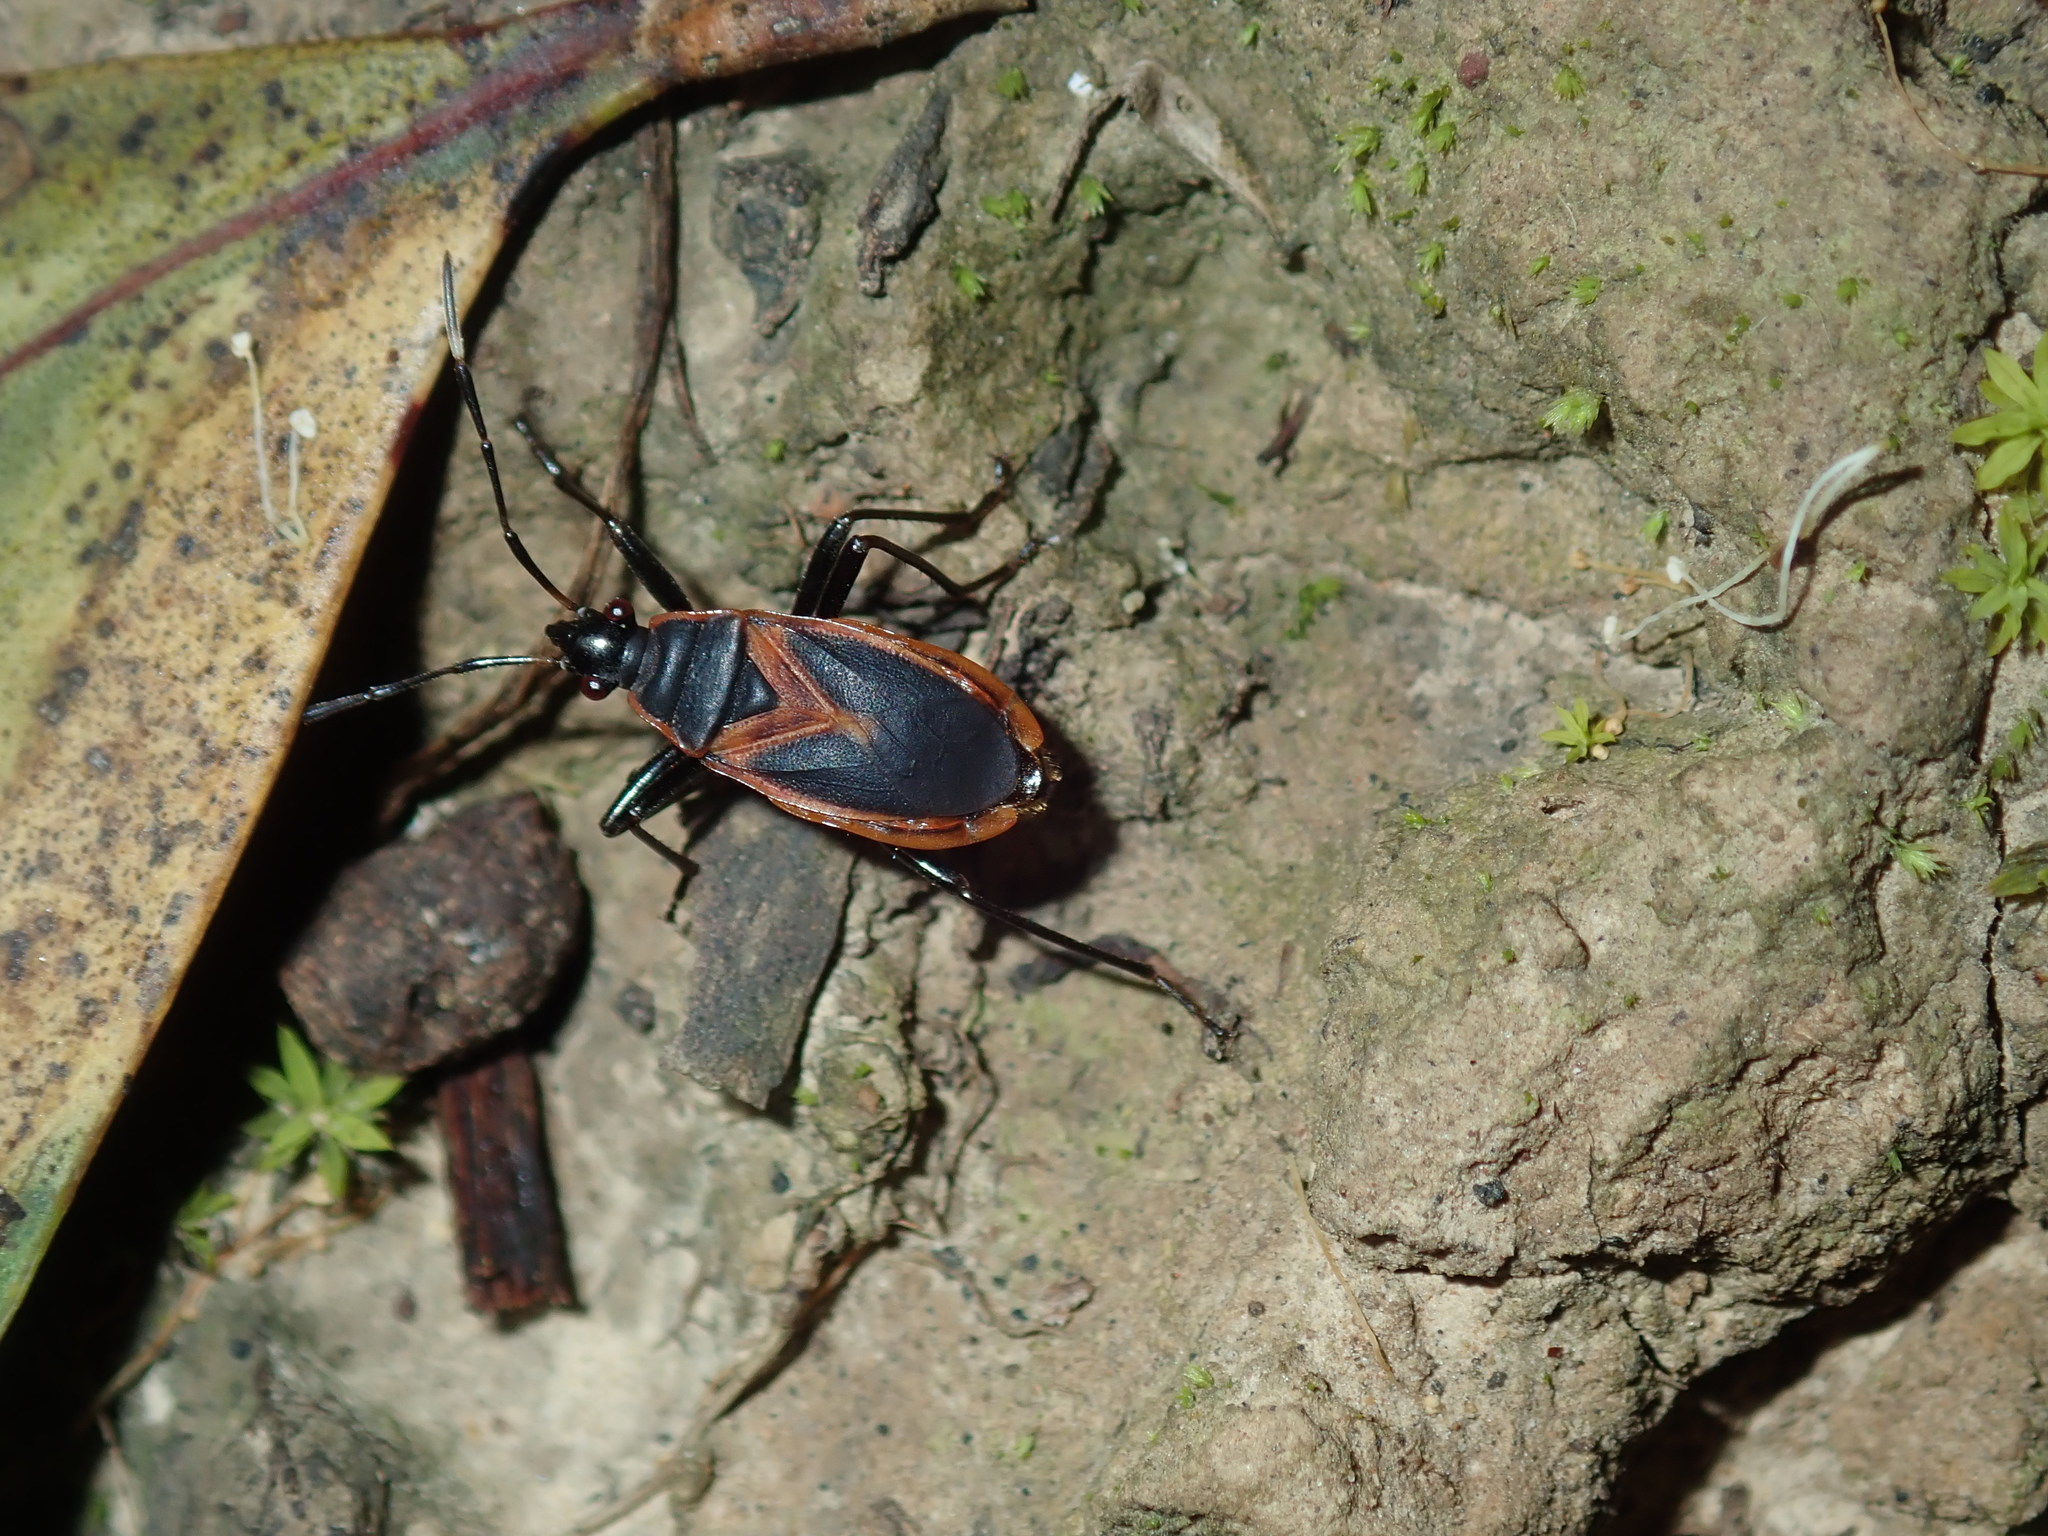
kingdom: Animalia
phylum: Arthropoda
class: Insecta
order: Hemiptera
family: Pyrrhocoridae
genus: Dindymus
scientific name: Dindymus
